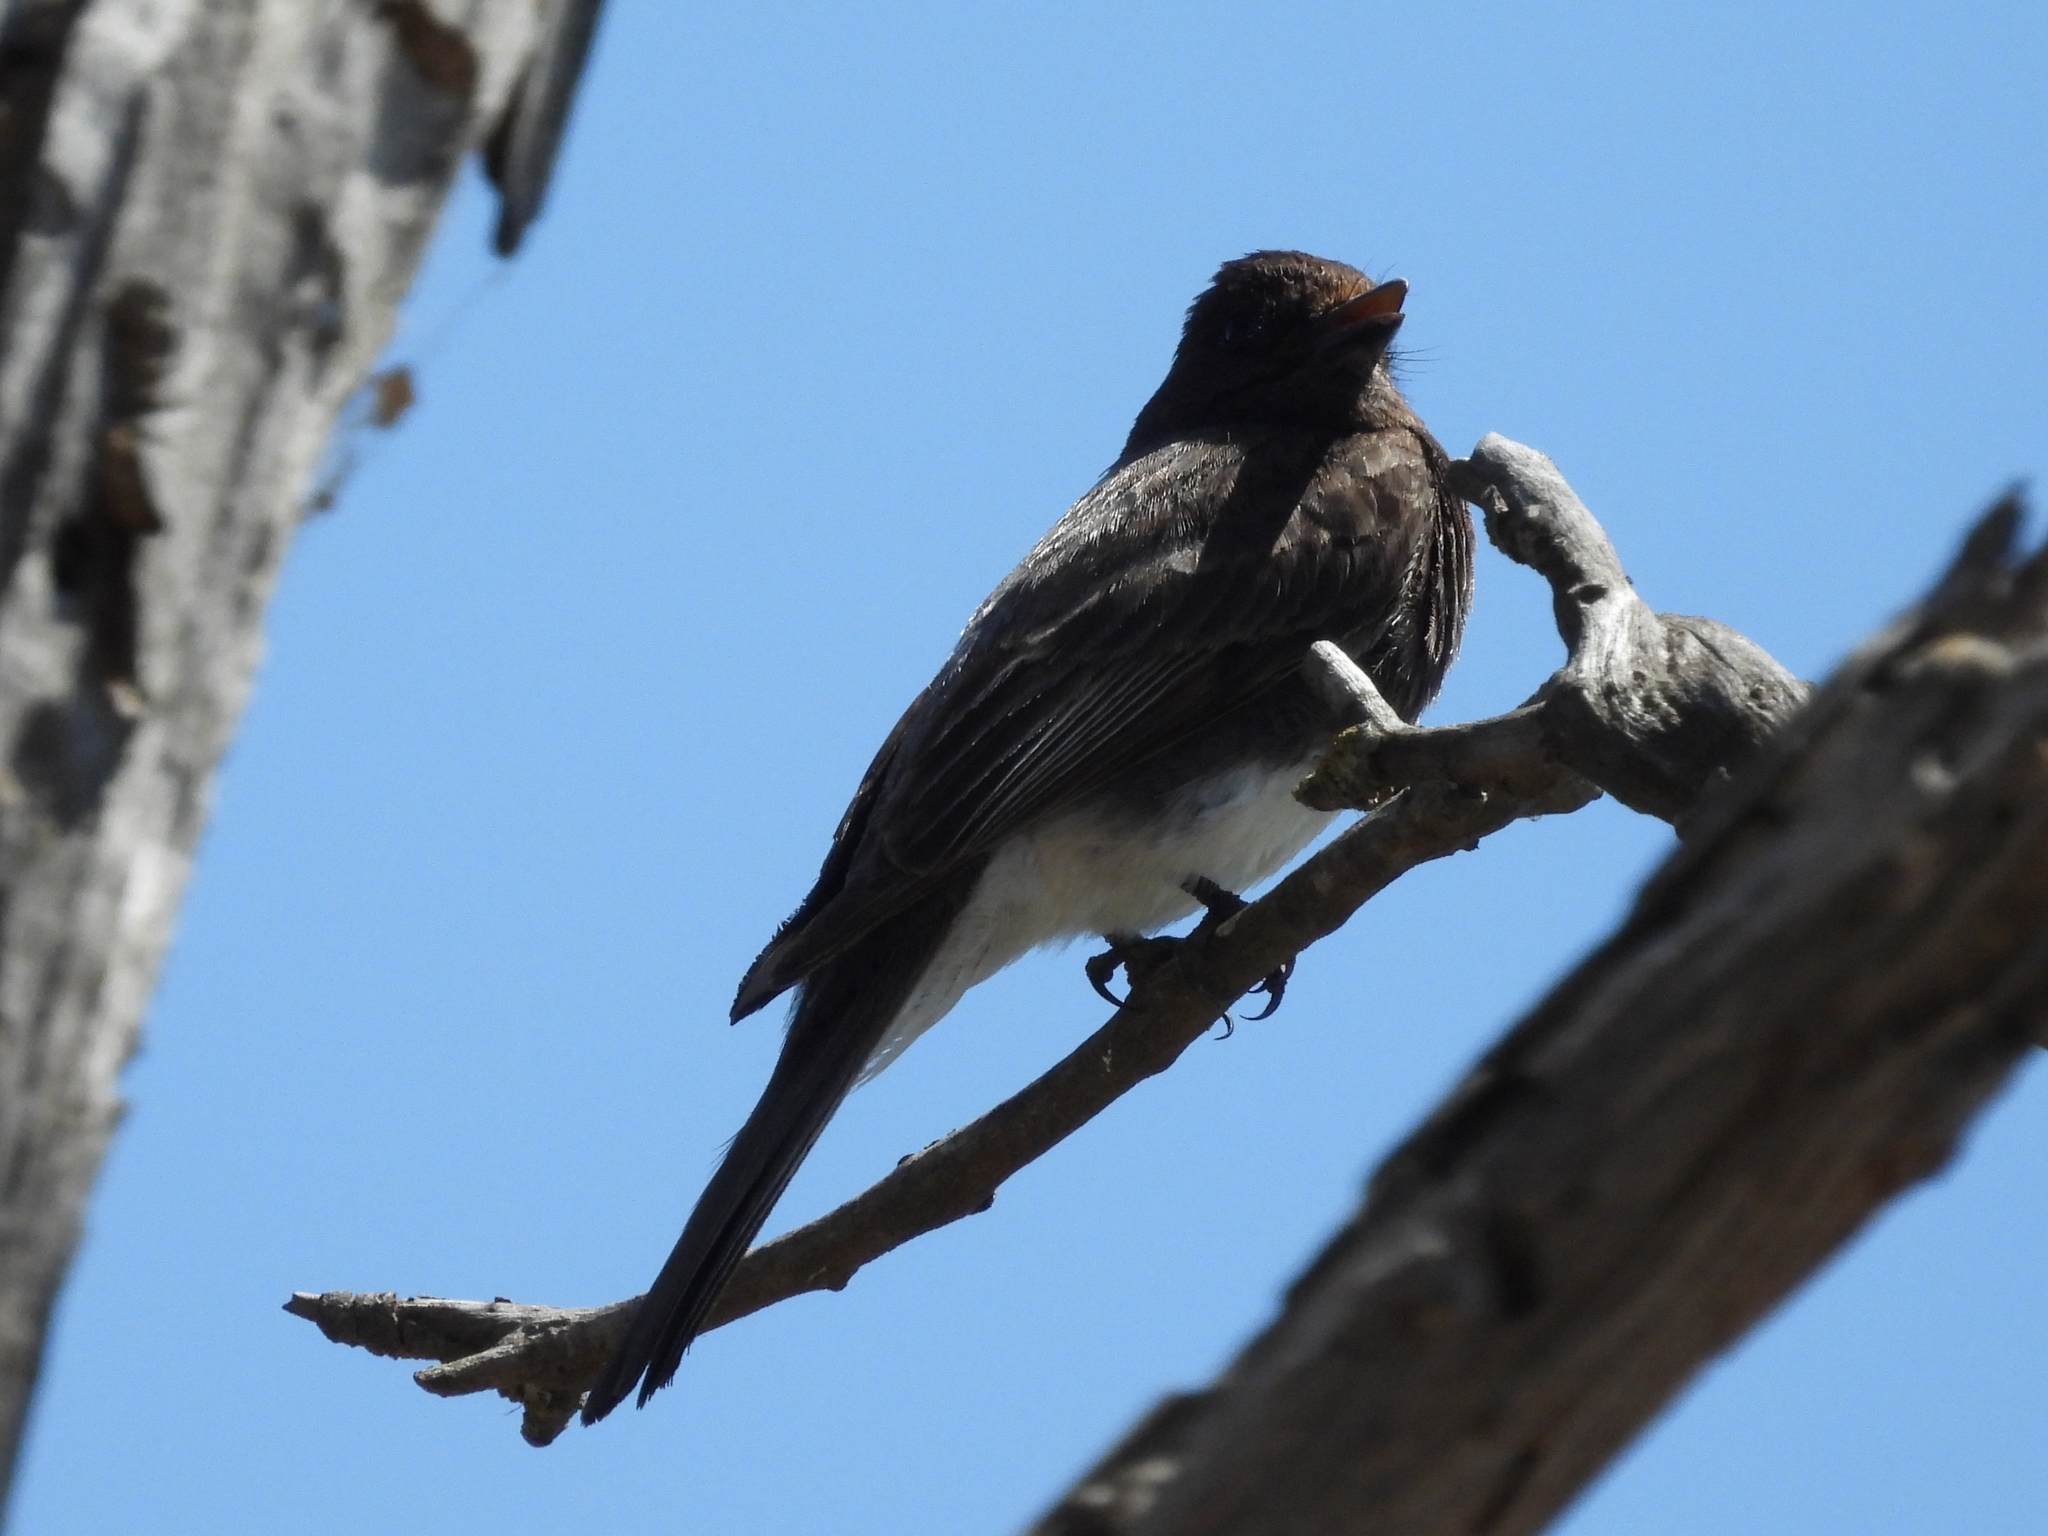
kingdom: Animalia
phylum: Chordata
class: Aves
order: Passeriformes
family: Tyrannidae
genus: Sayornis
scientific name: Sayornis nigricans
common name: Black phoebe
